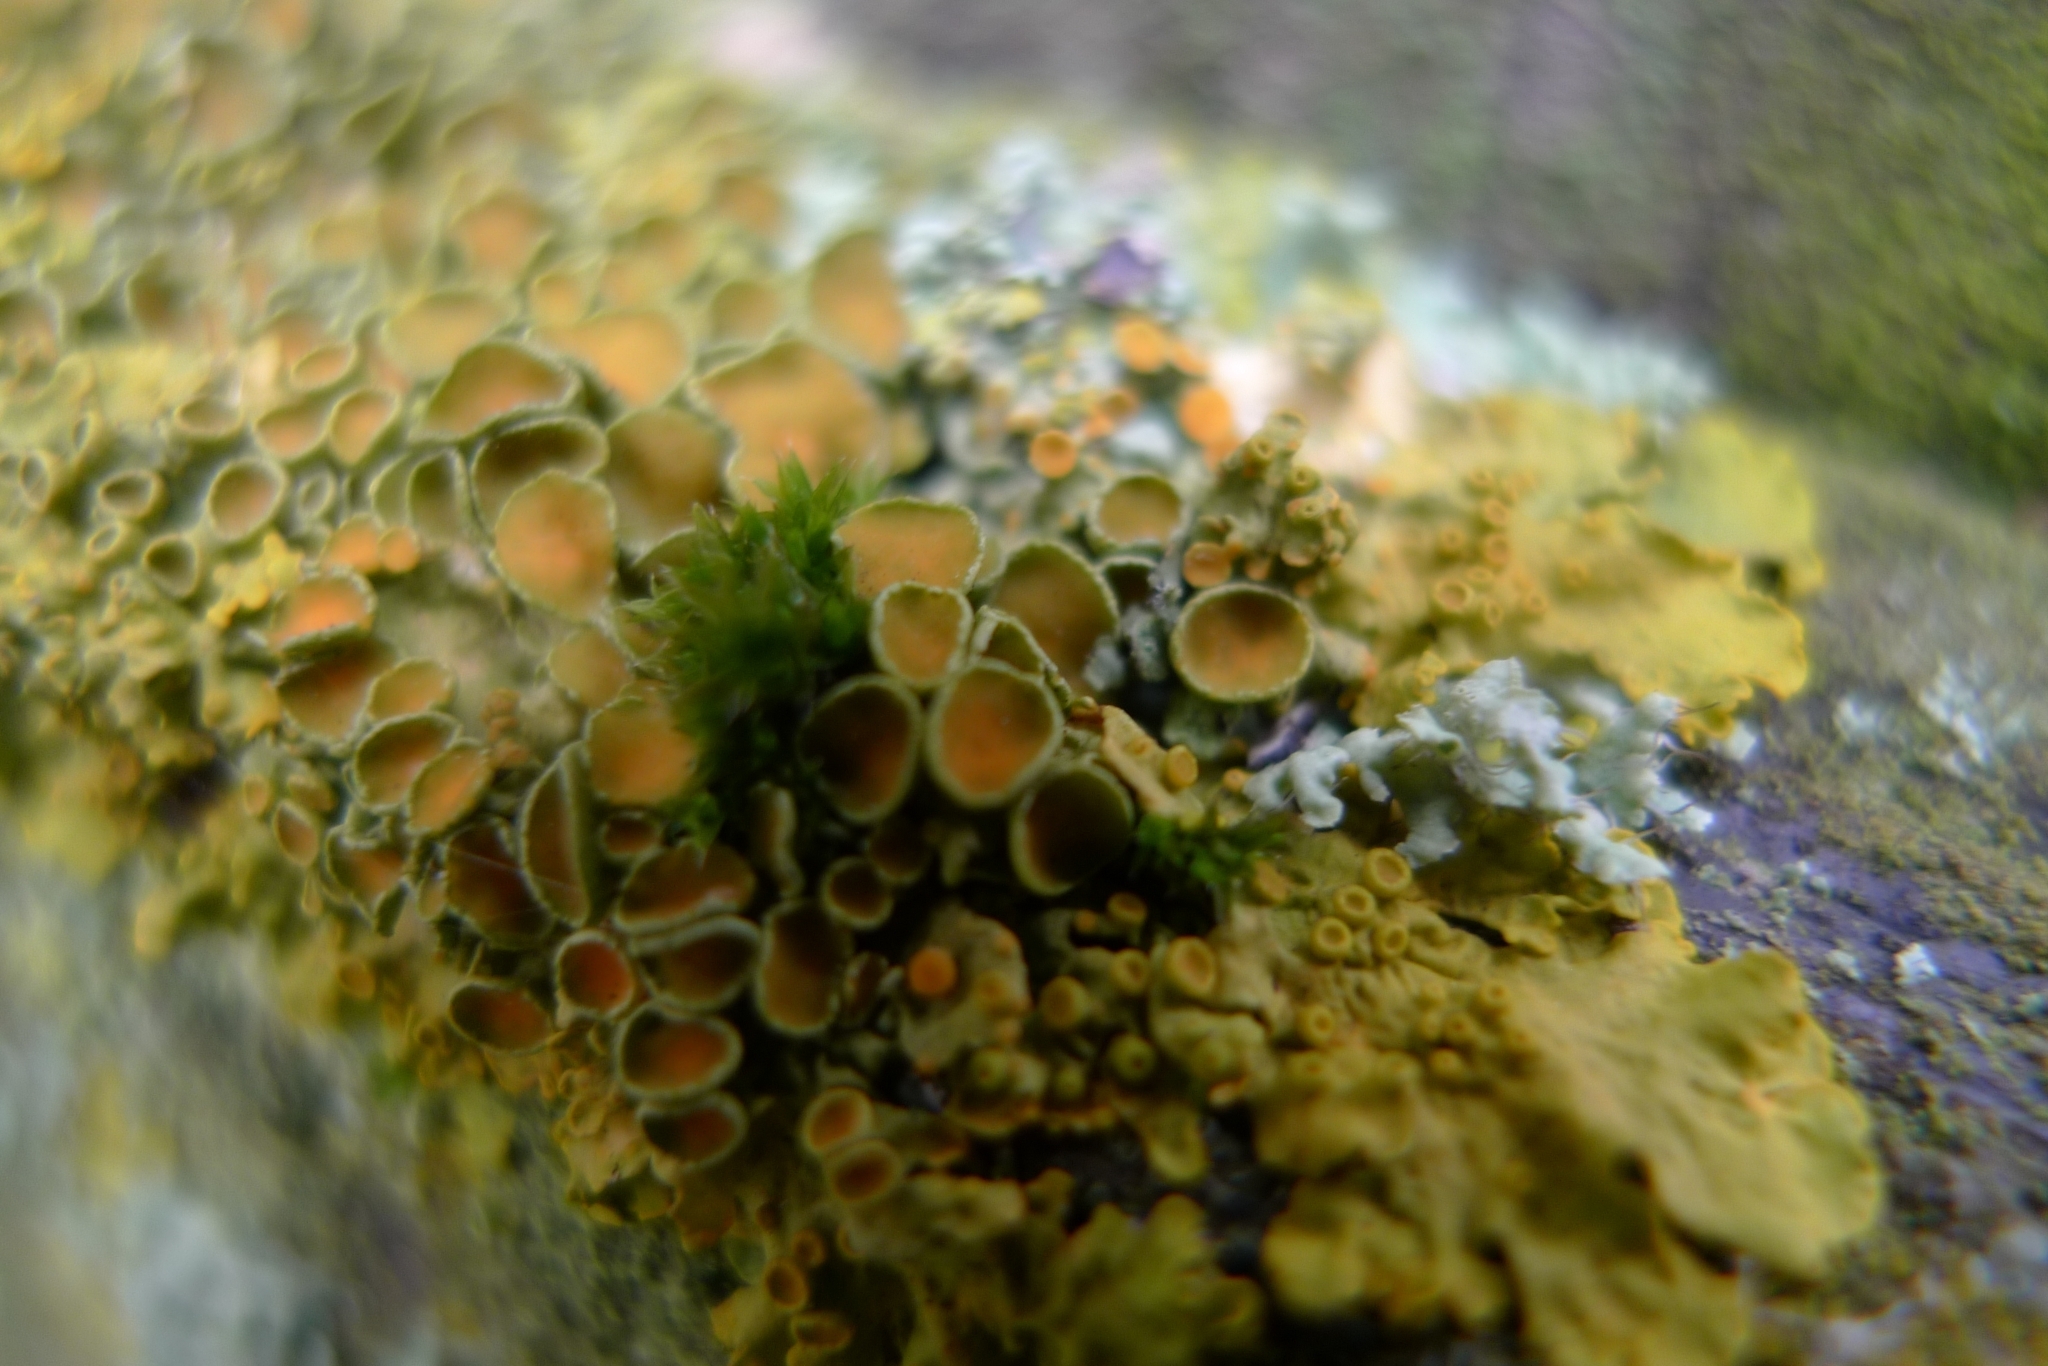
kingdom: Fungi
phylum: Ascomycota
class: Lecanoromycetes
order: Teloschistales
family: Teloschistaceae
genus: Xanthoria
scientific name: Xanthoria parietina
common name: Common orange lichen
